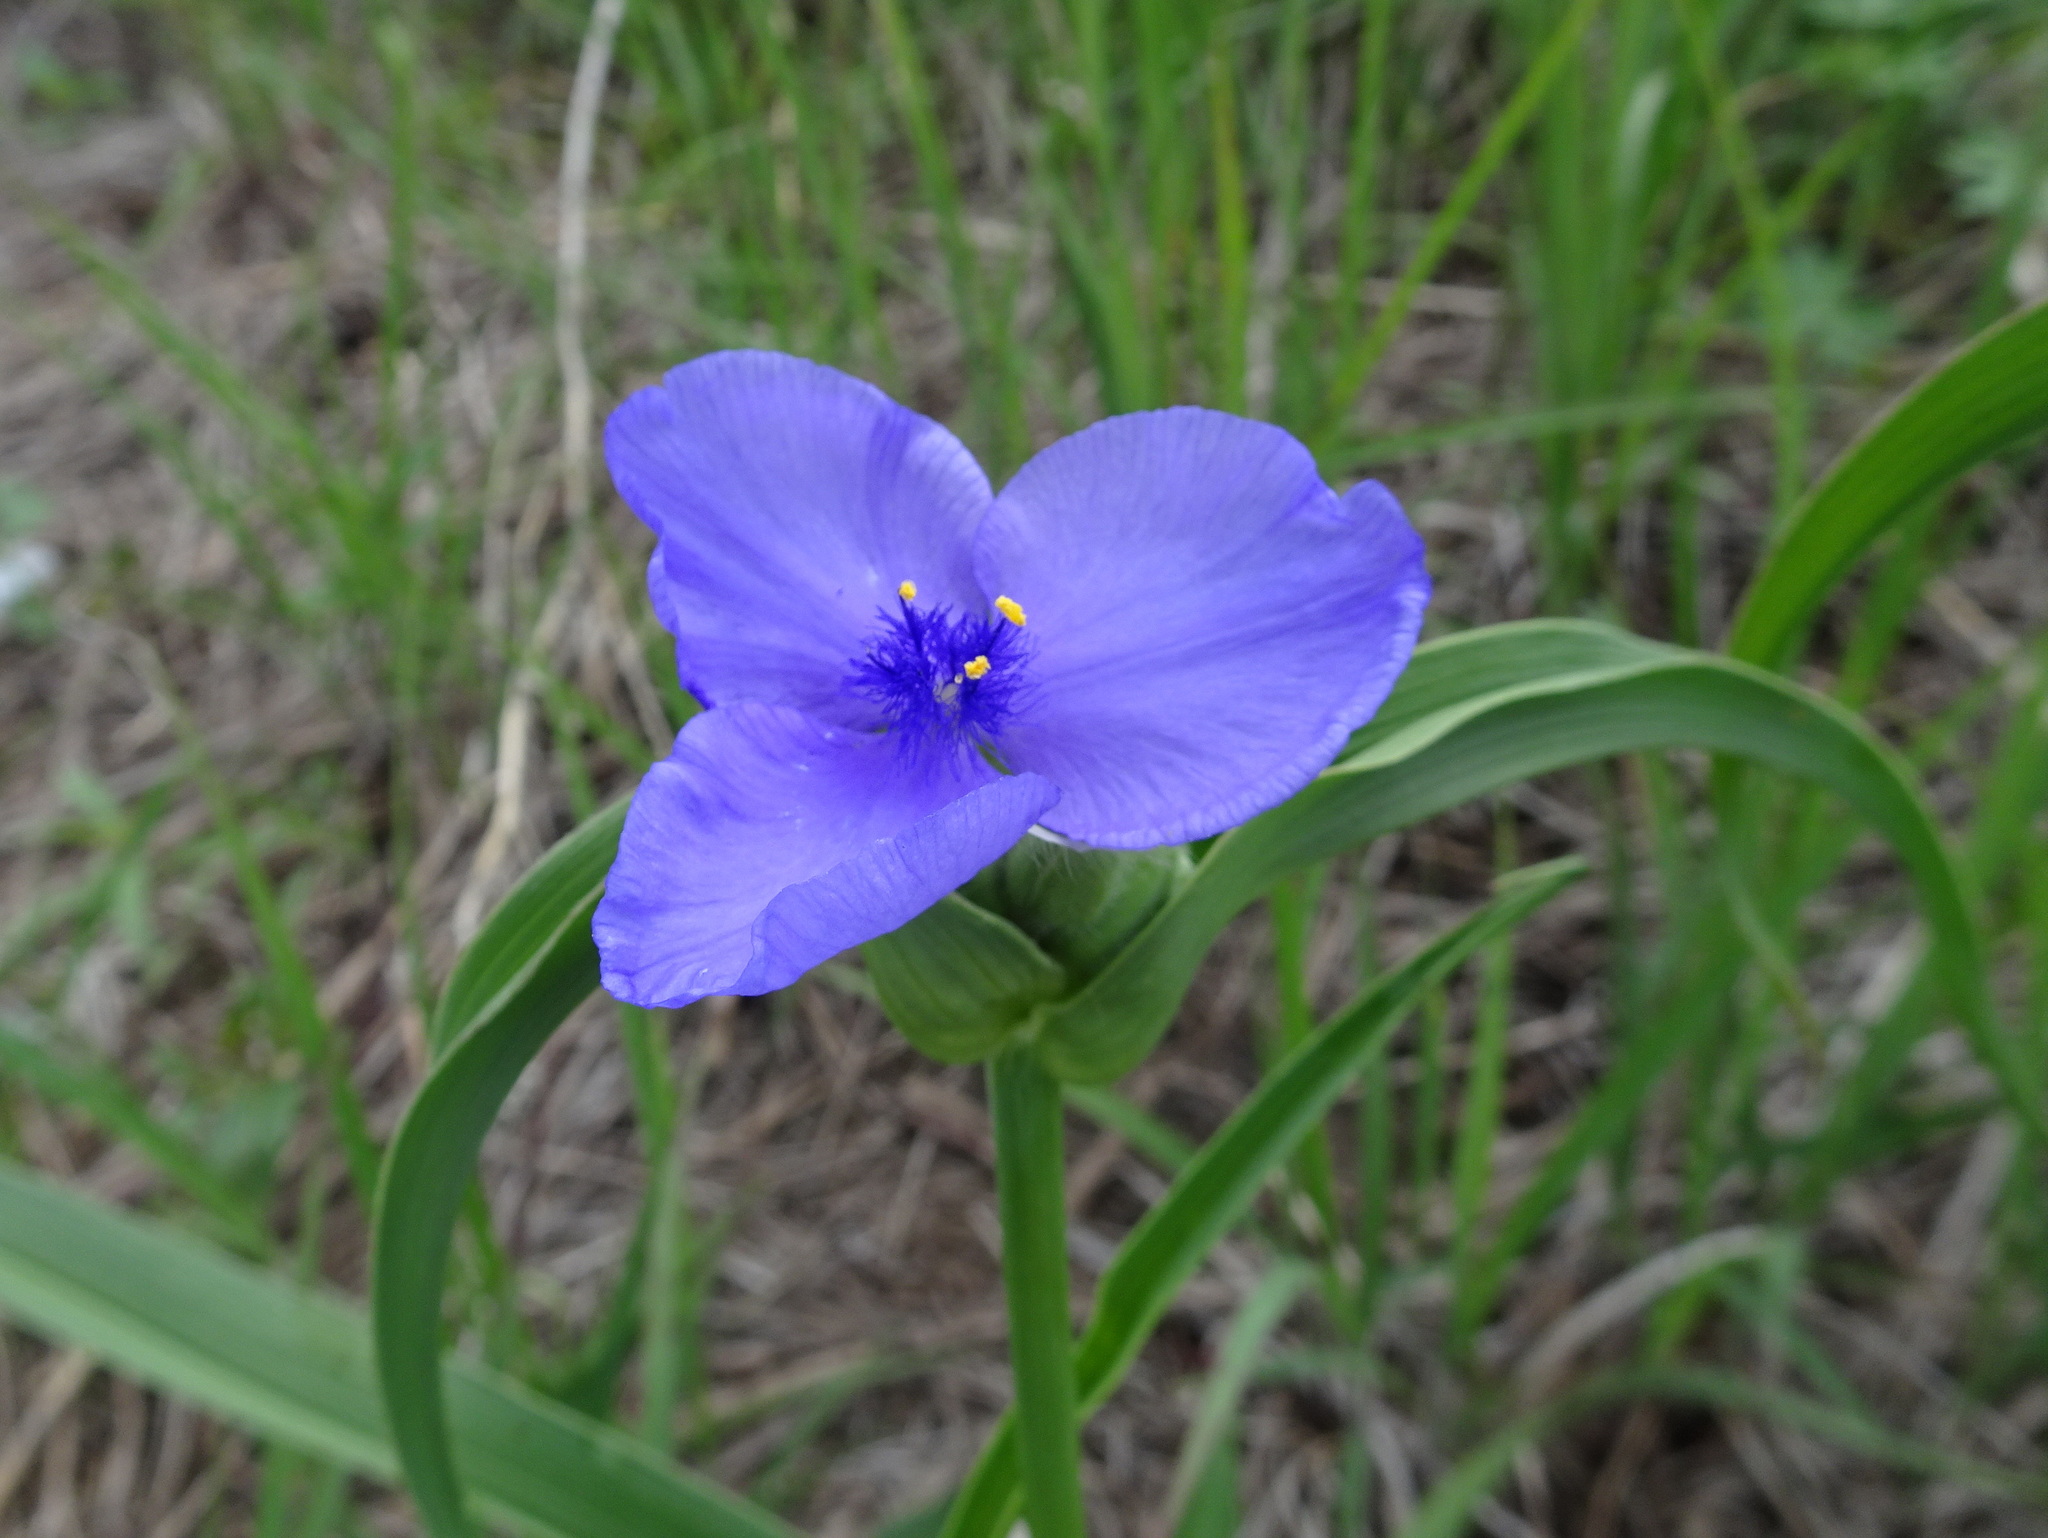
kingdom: Plantae
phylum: Tracheophyta
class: Liliopsida
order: Commelinales
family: Commelinaceae
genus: Tradescantia
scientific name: Tradescantia bracteata
